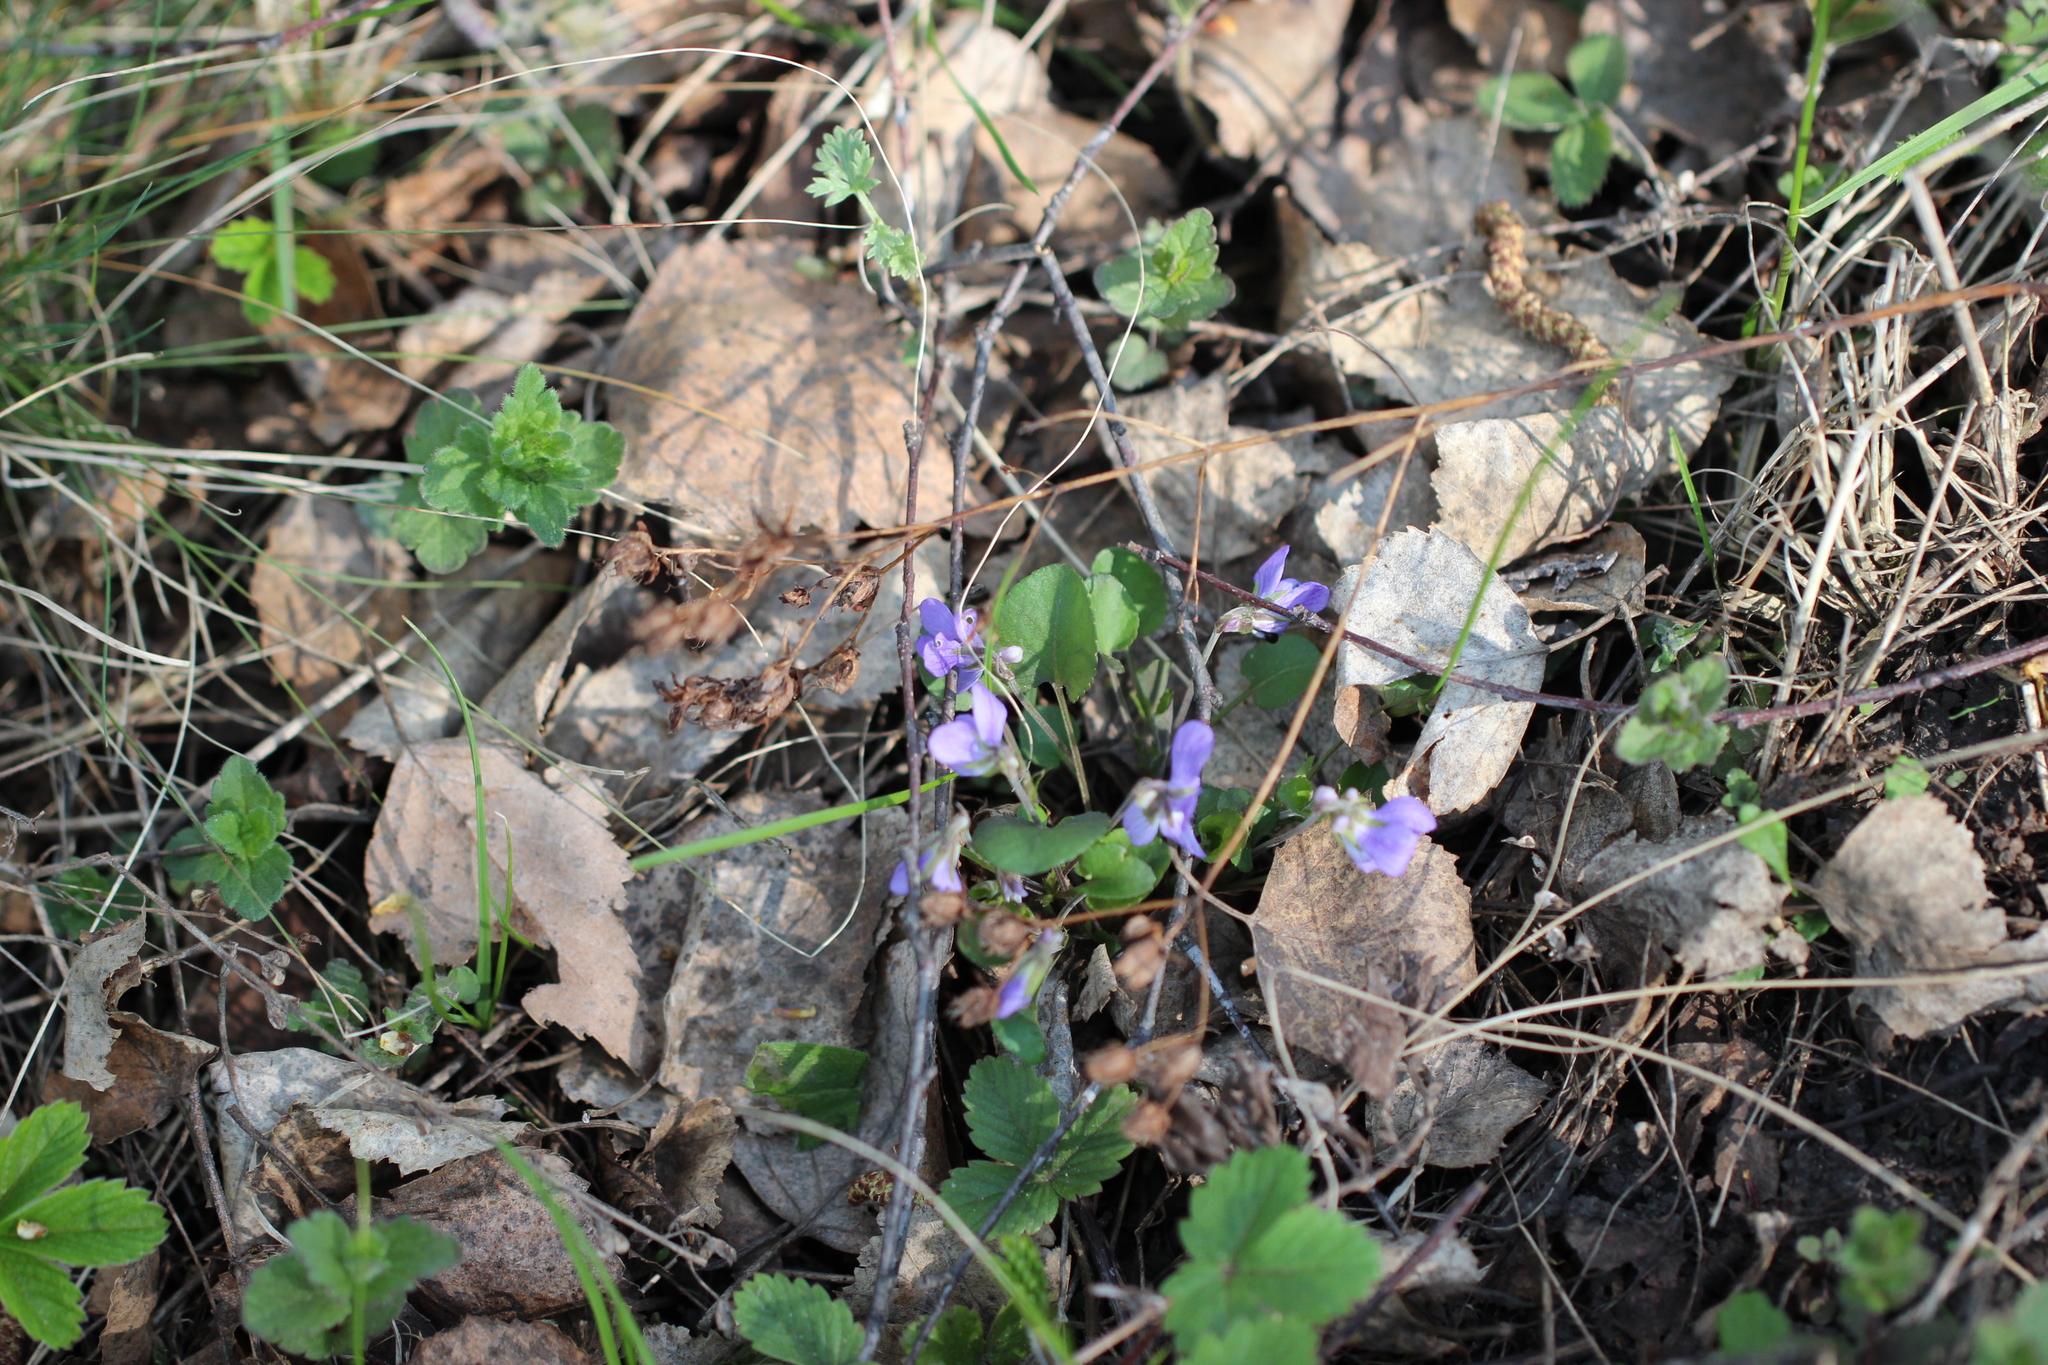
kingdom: Plantae
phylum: Tracheophyta
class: Magnoliopsida
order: Malpighiales
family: Violaceae
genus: Viola
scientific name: Viola rupestris
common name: Teesdale violet
